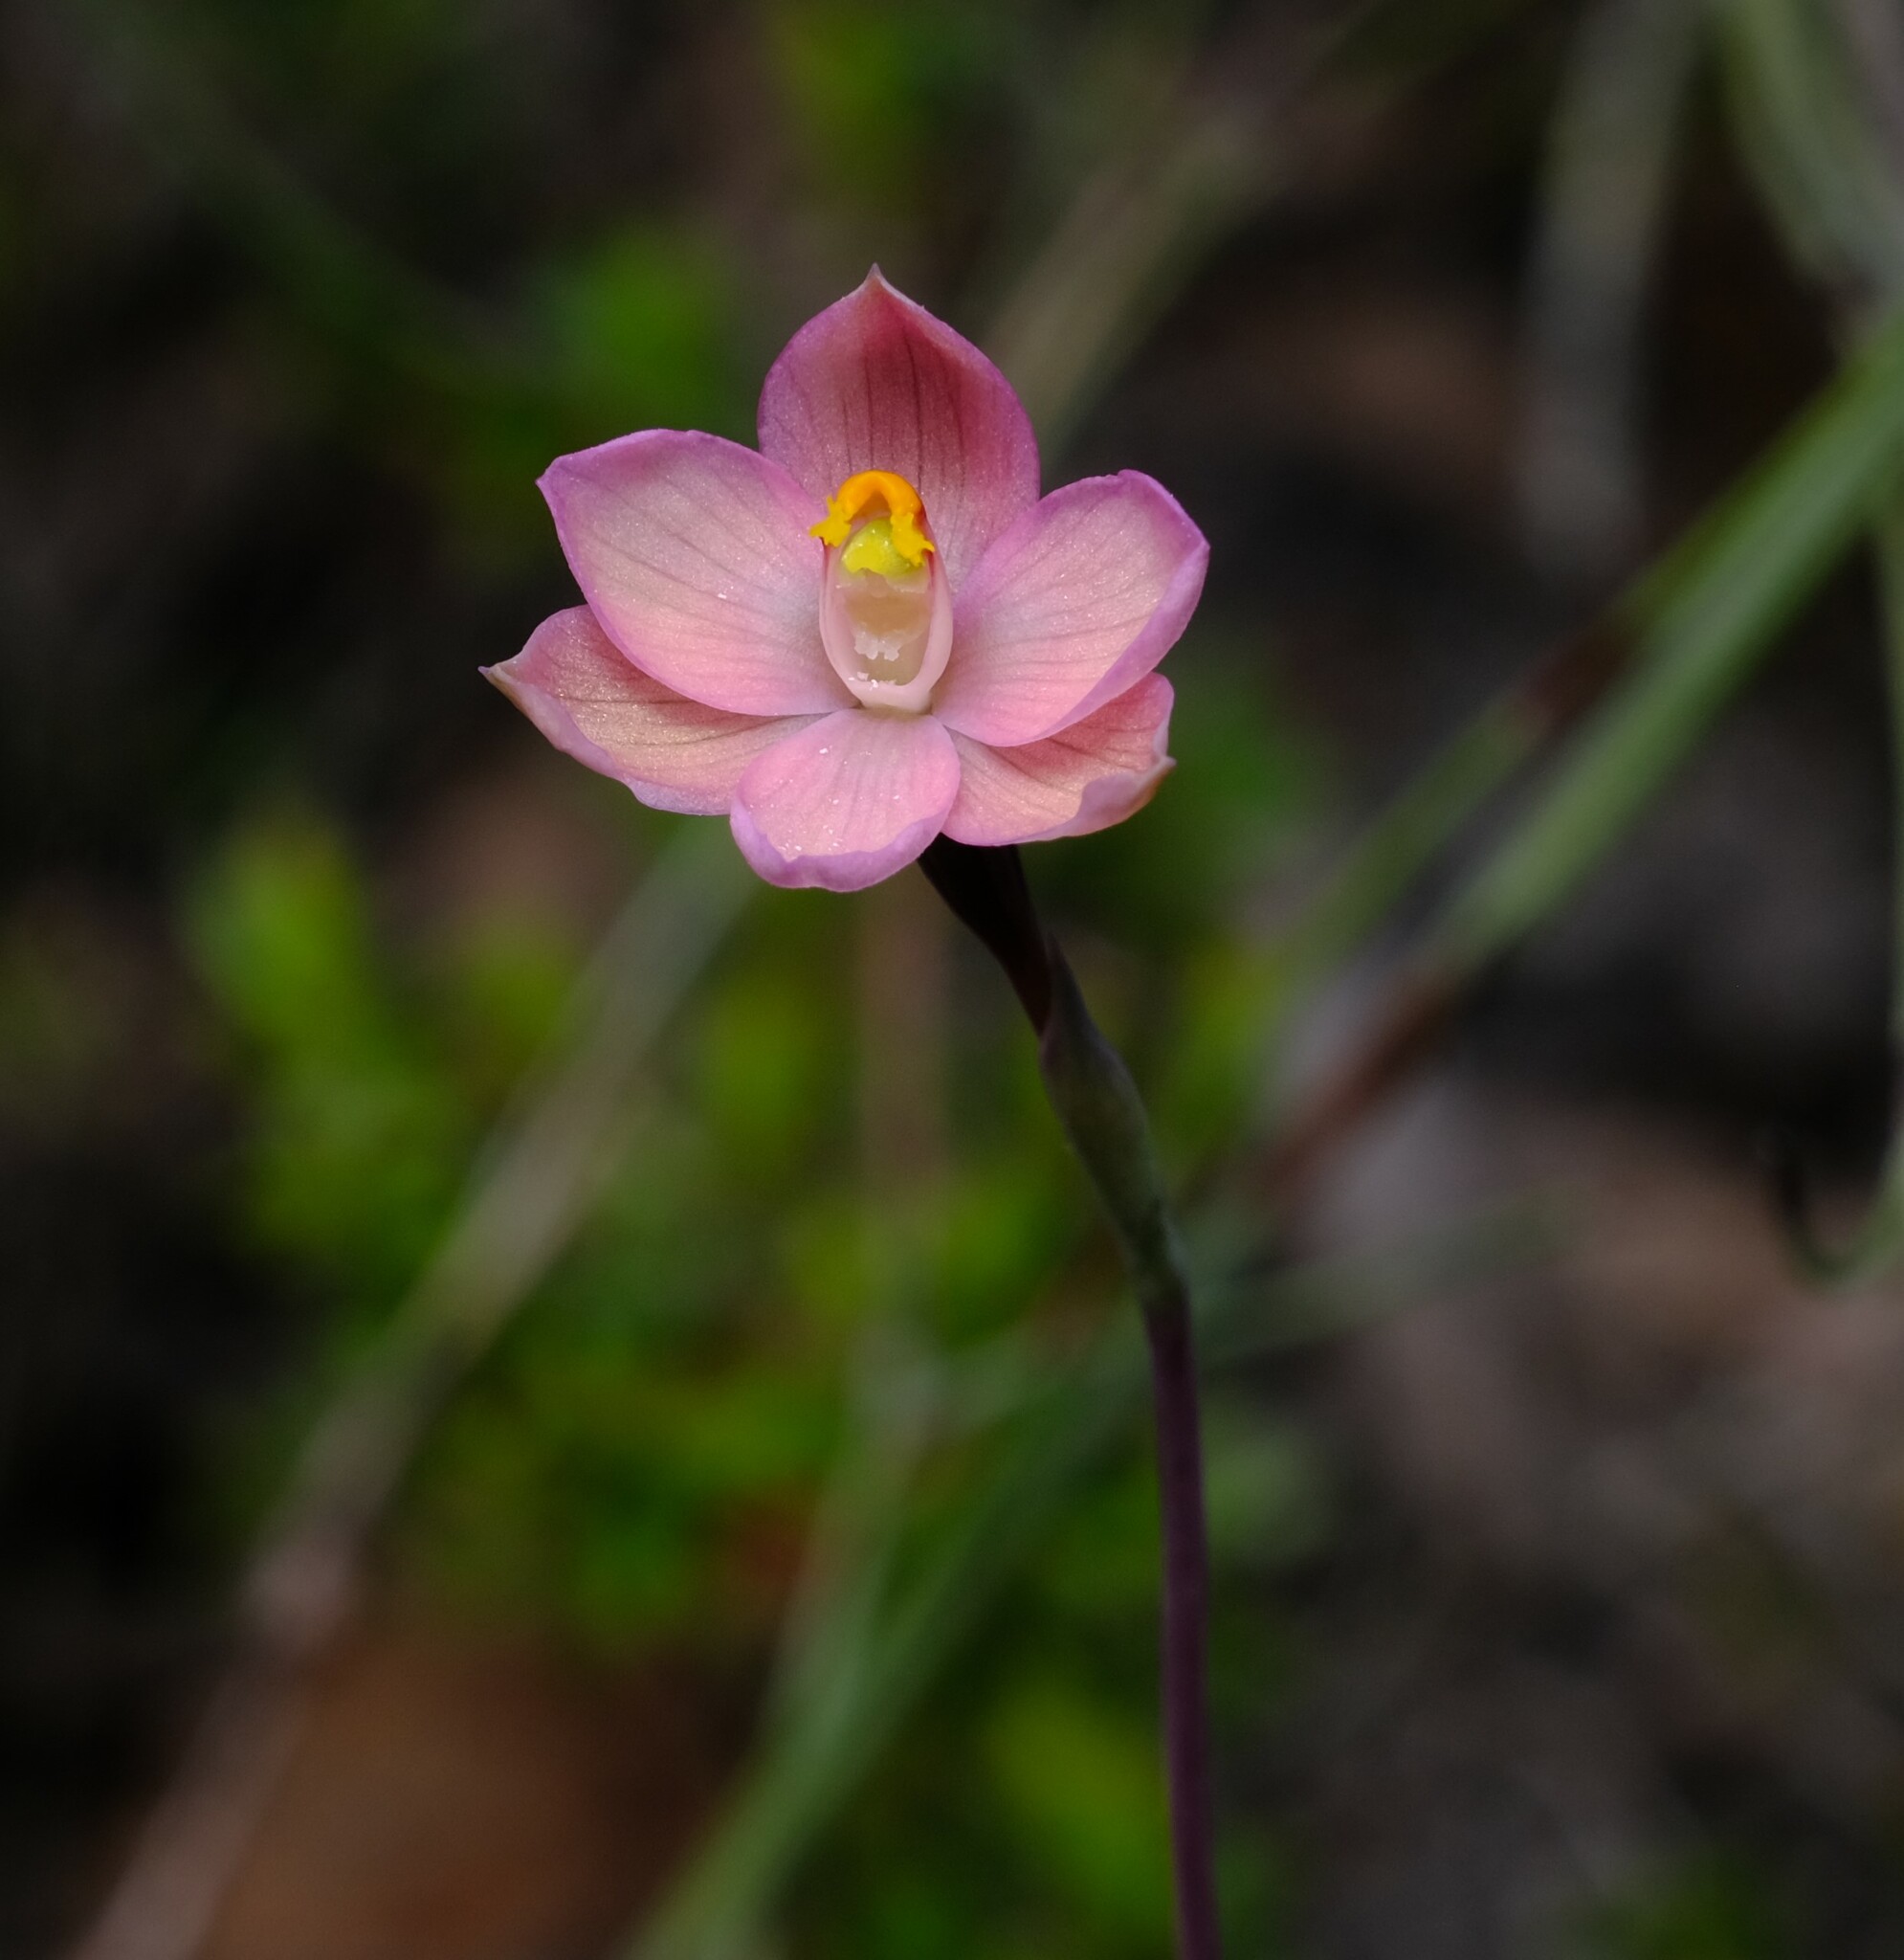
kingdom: Plantae
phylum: Tracheophyta
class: Liliopsida
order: Asparagales
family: Orchidaceae
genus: Thelymitra
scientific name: Thelymitra rubra
